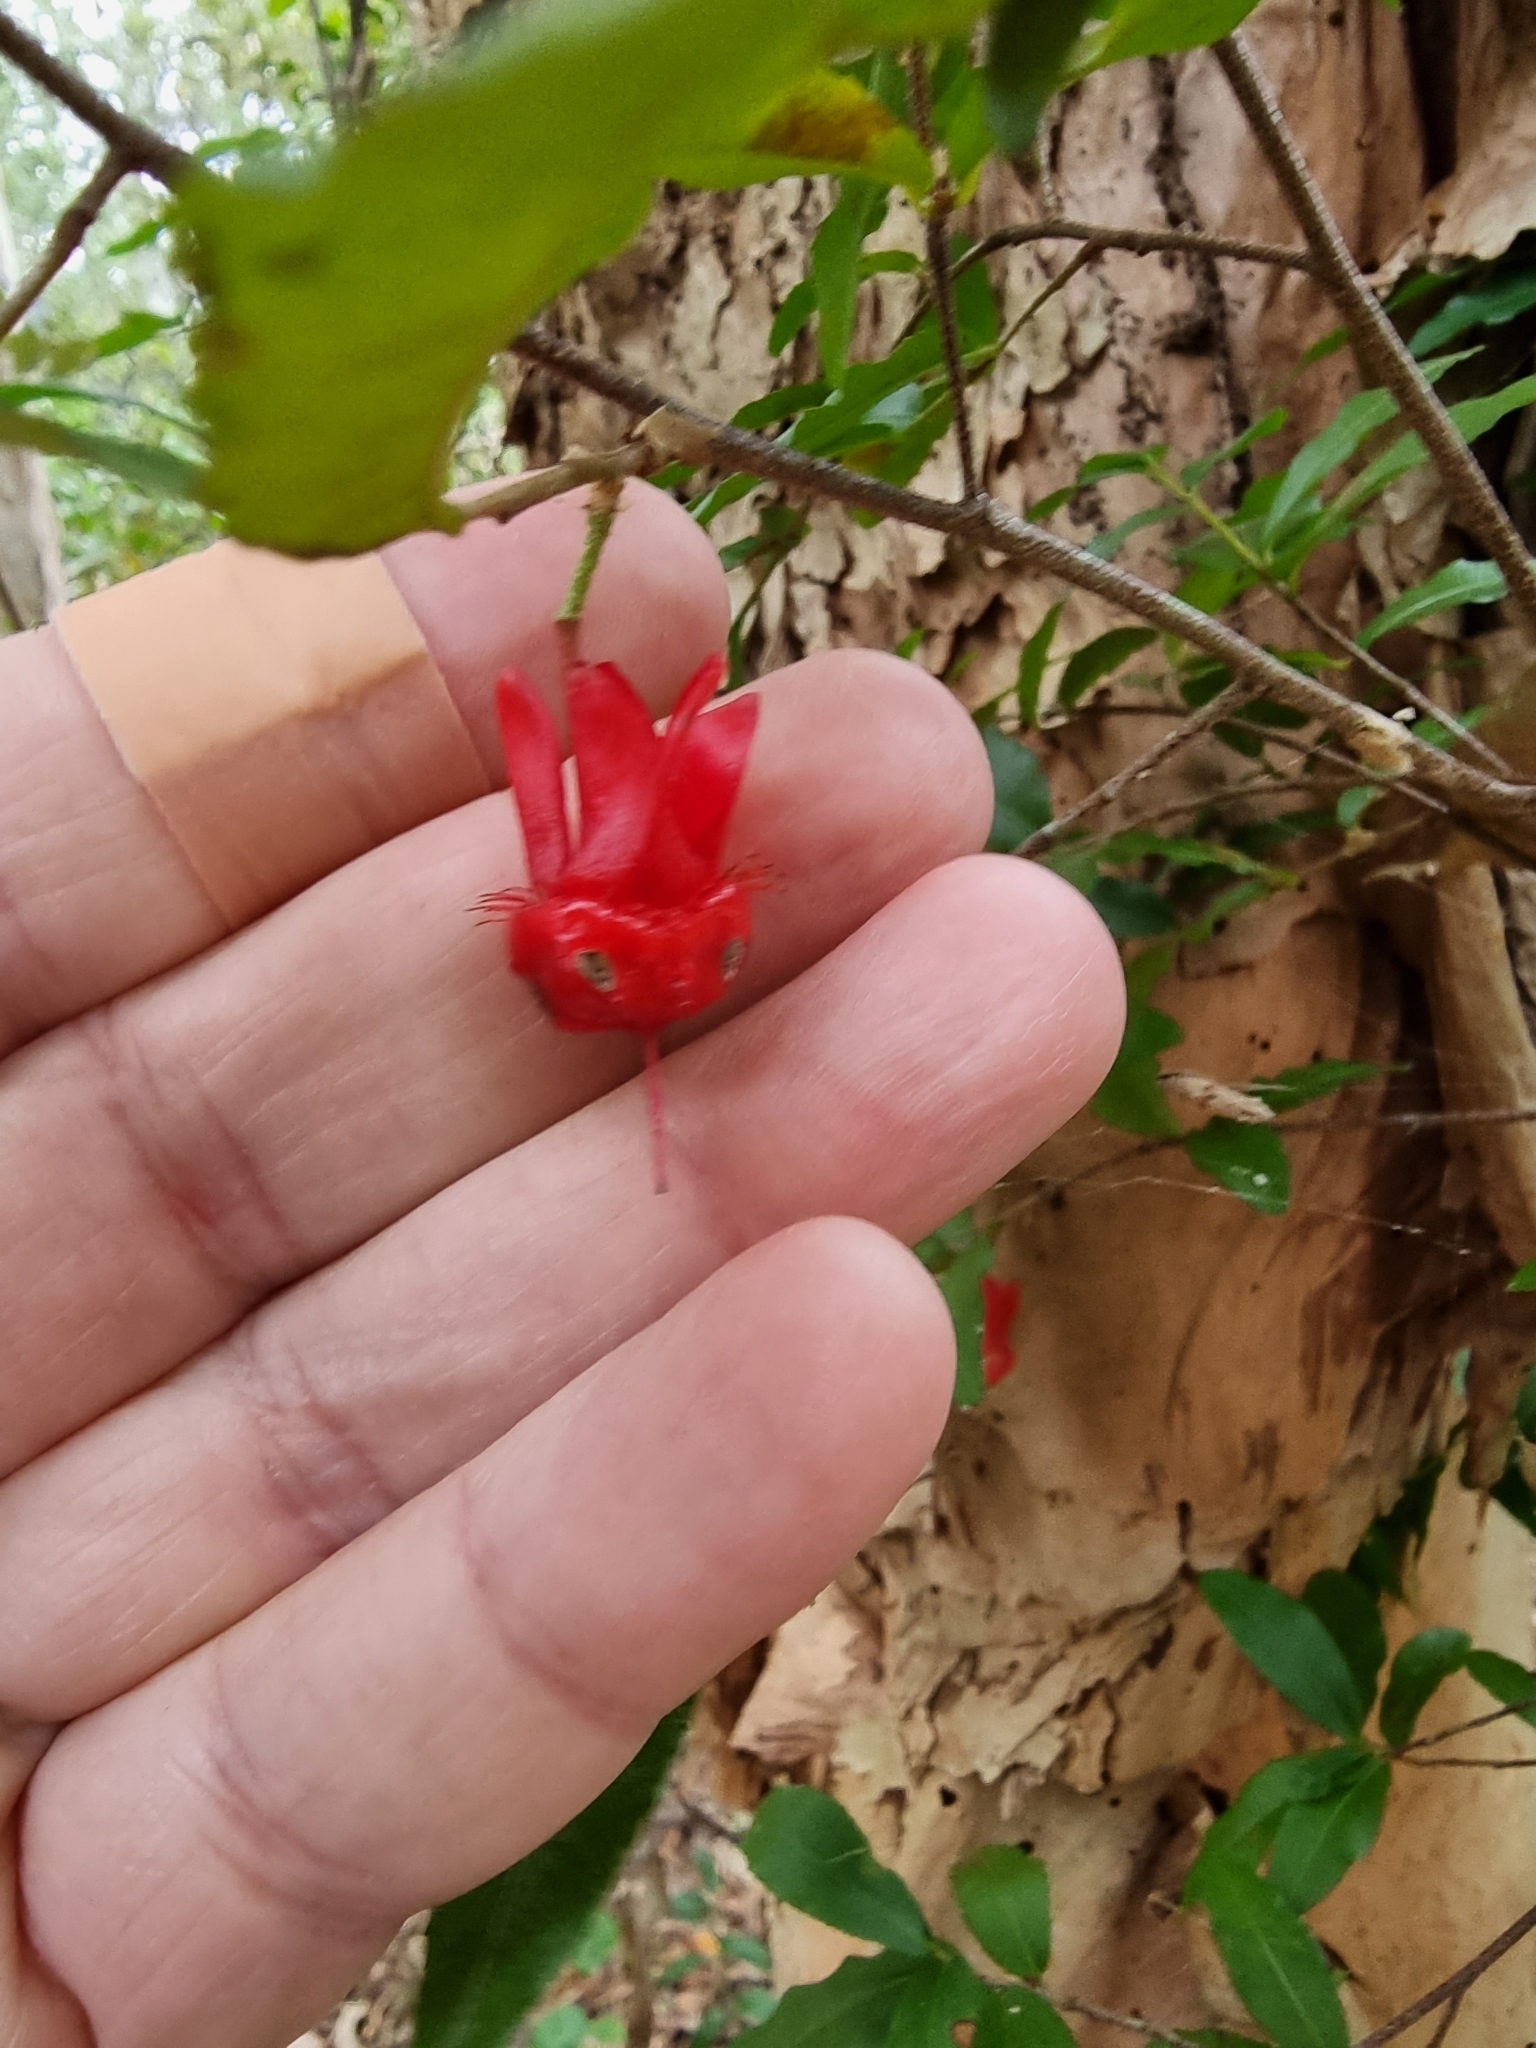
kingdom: Plantae
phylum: Tracheophyta
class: Magnoliopsida
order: Malpighiales
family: Ochnaceae
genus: Ochna
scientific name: Ochna serrulata
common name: Mickey mouse plant
